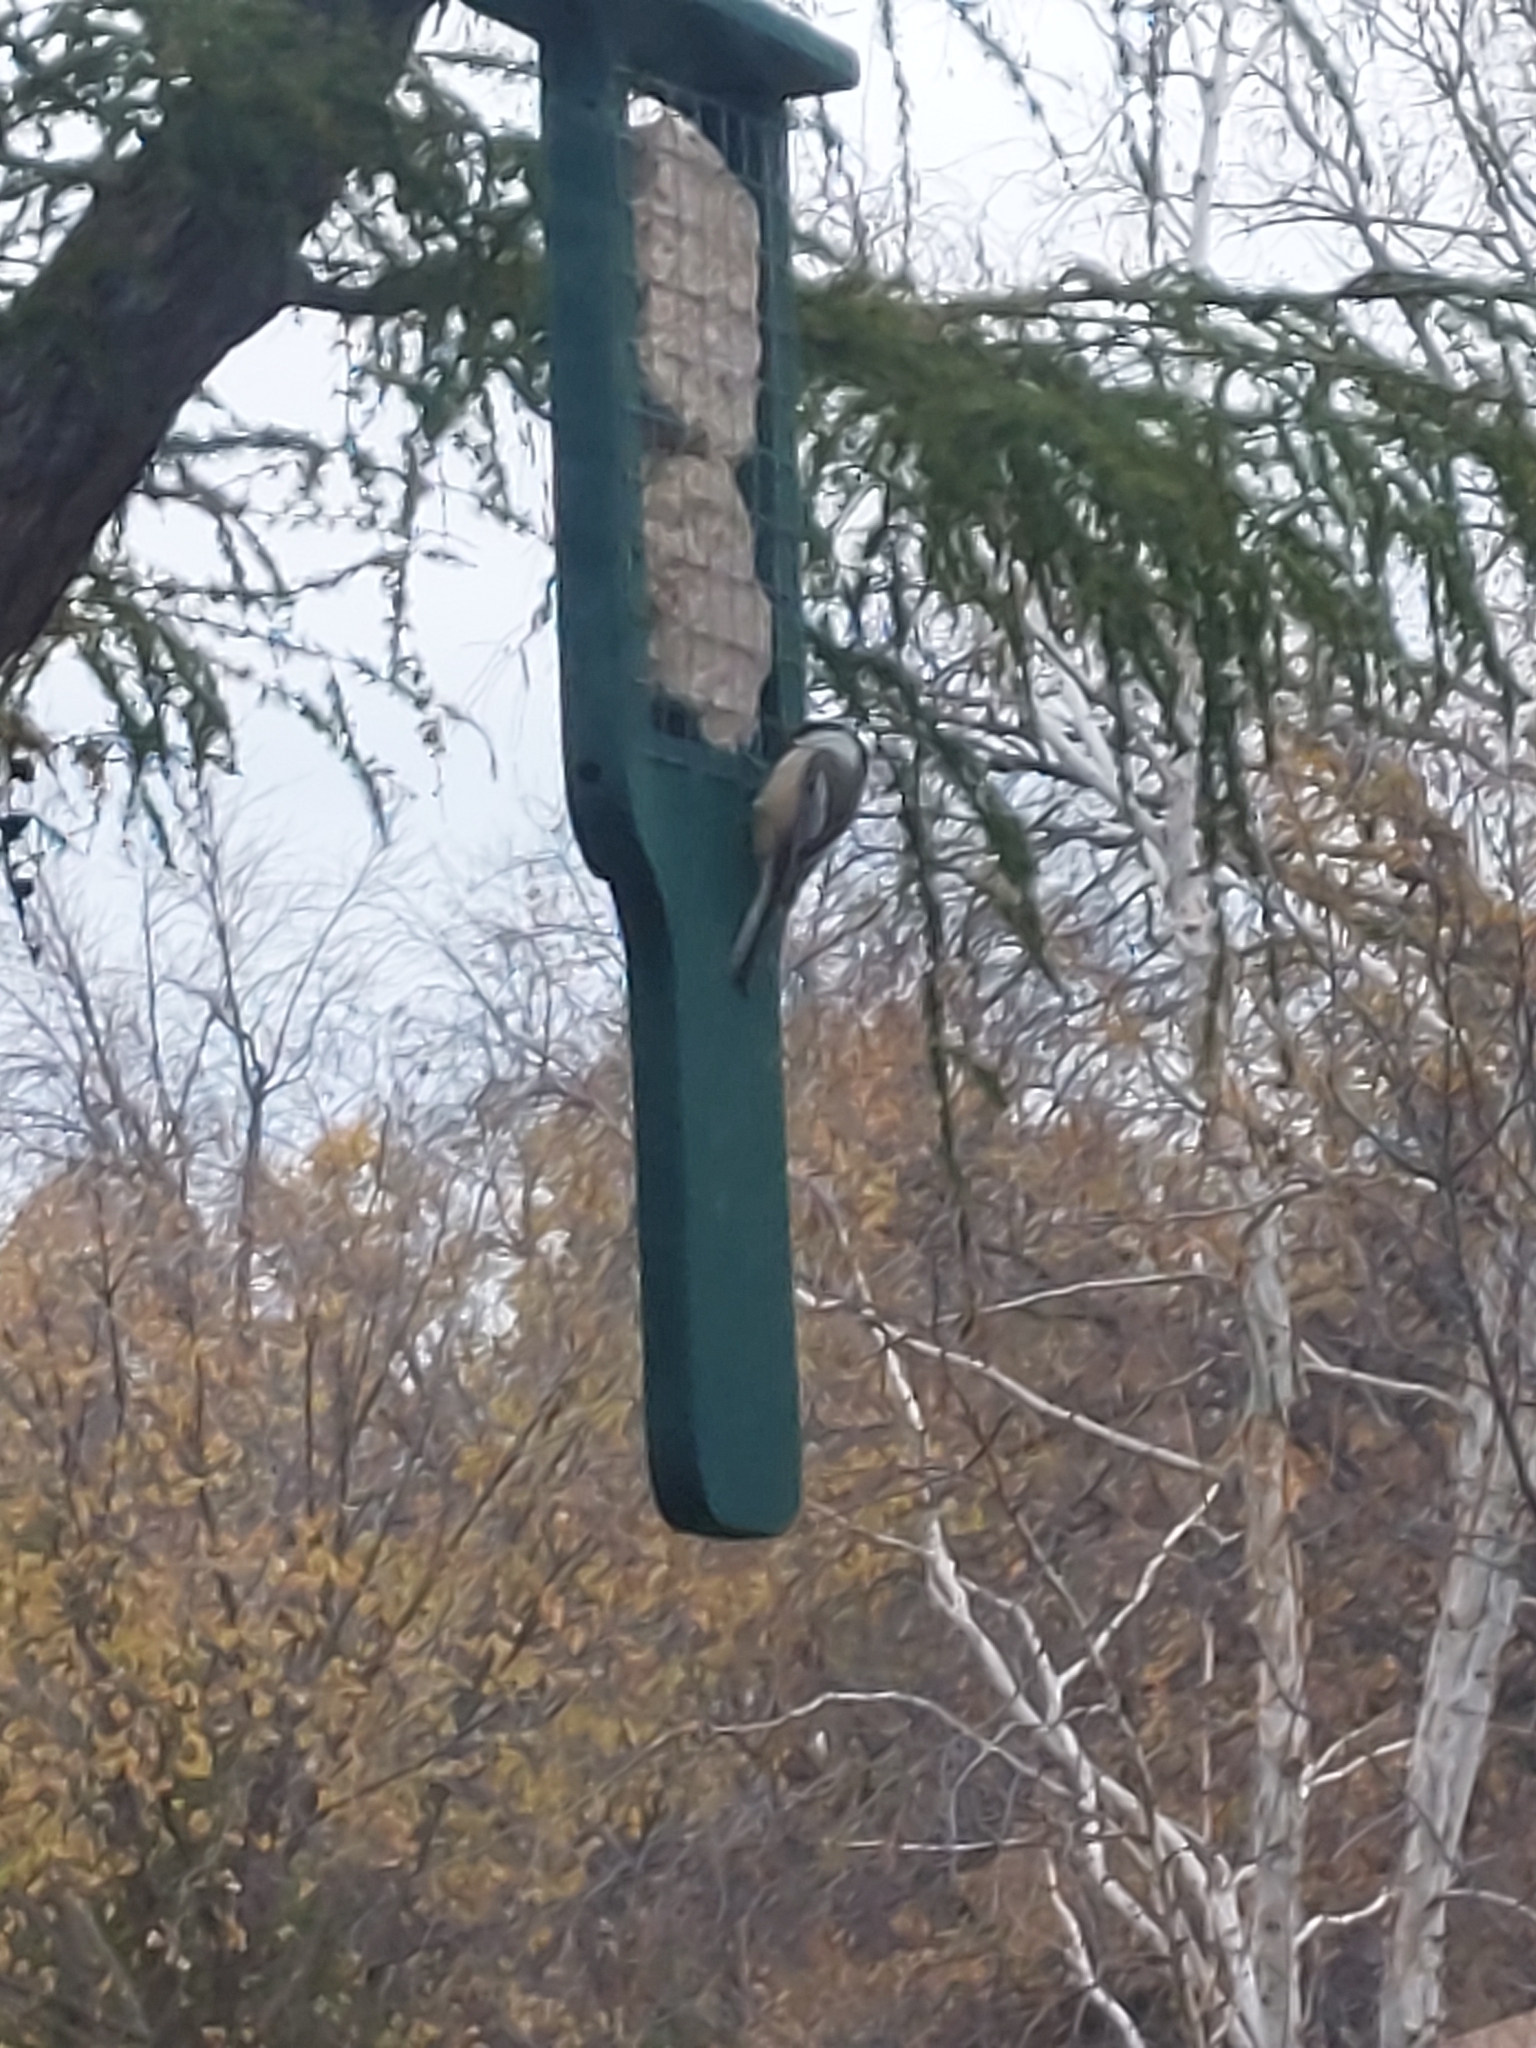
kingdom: Animalia
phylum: Chordata
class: Aves
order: Passeriformes
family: Paridae
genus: Poecile
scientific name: Poecile atricapillus
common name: Black-capped chickadee
